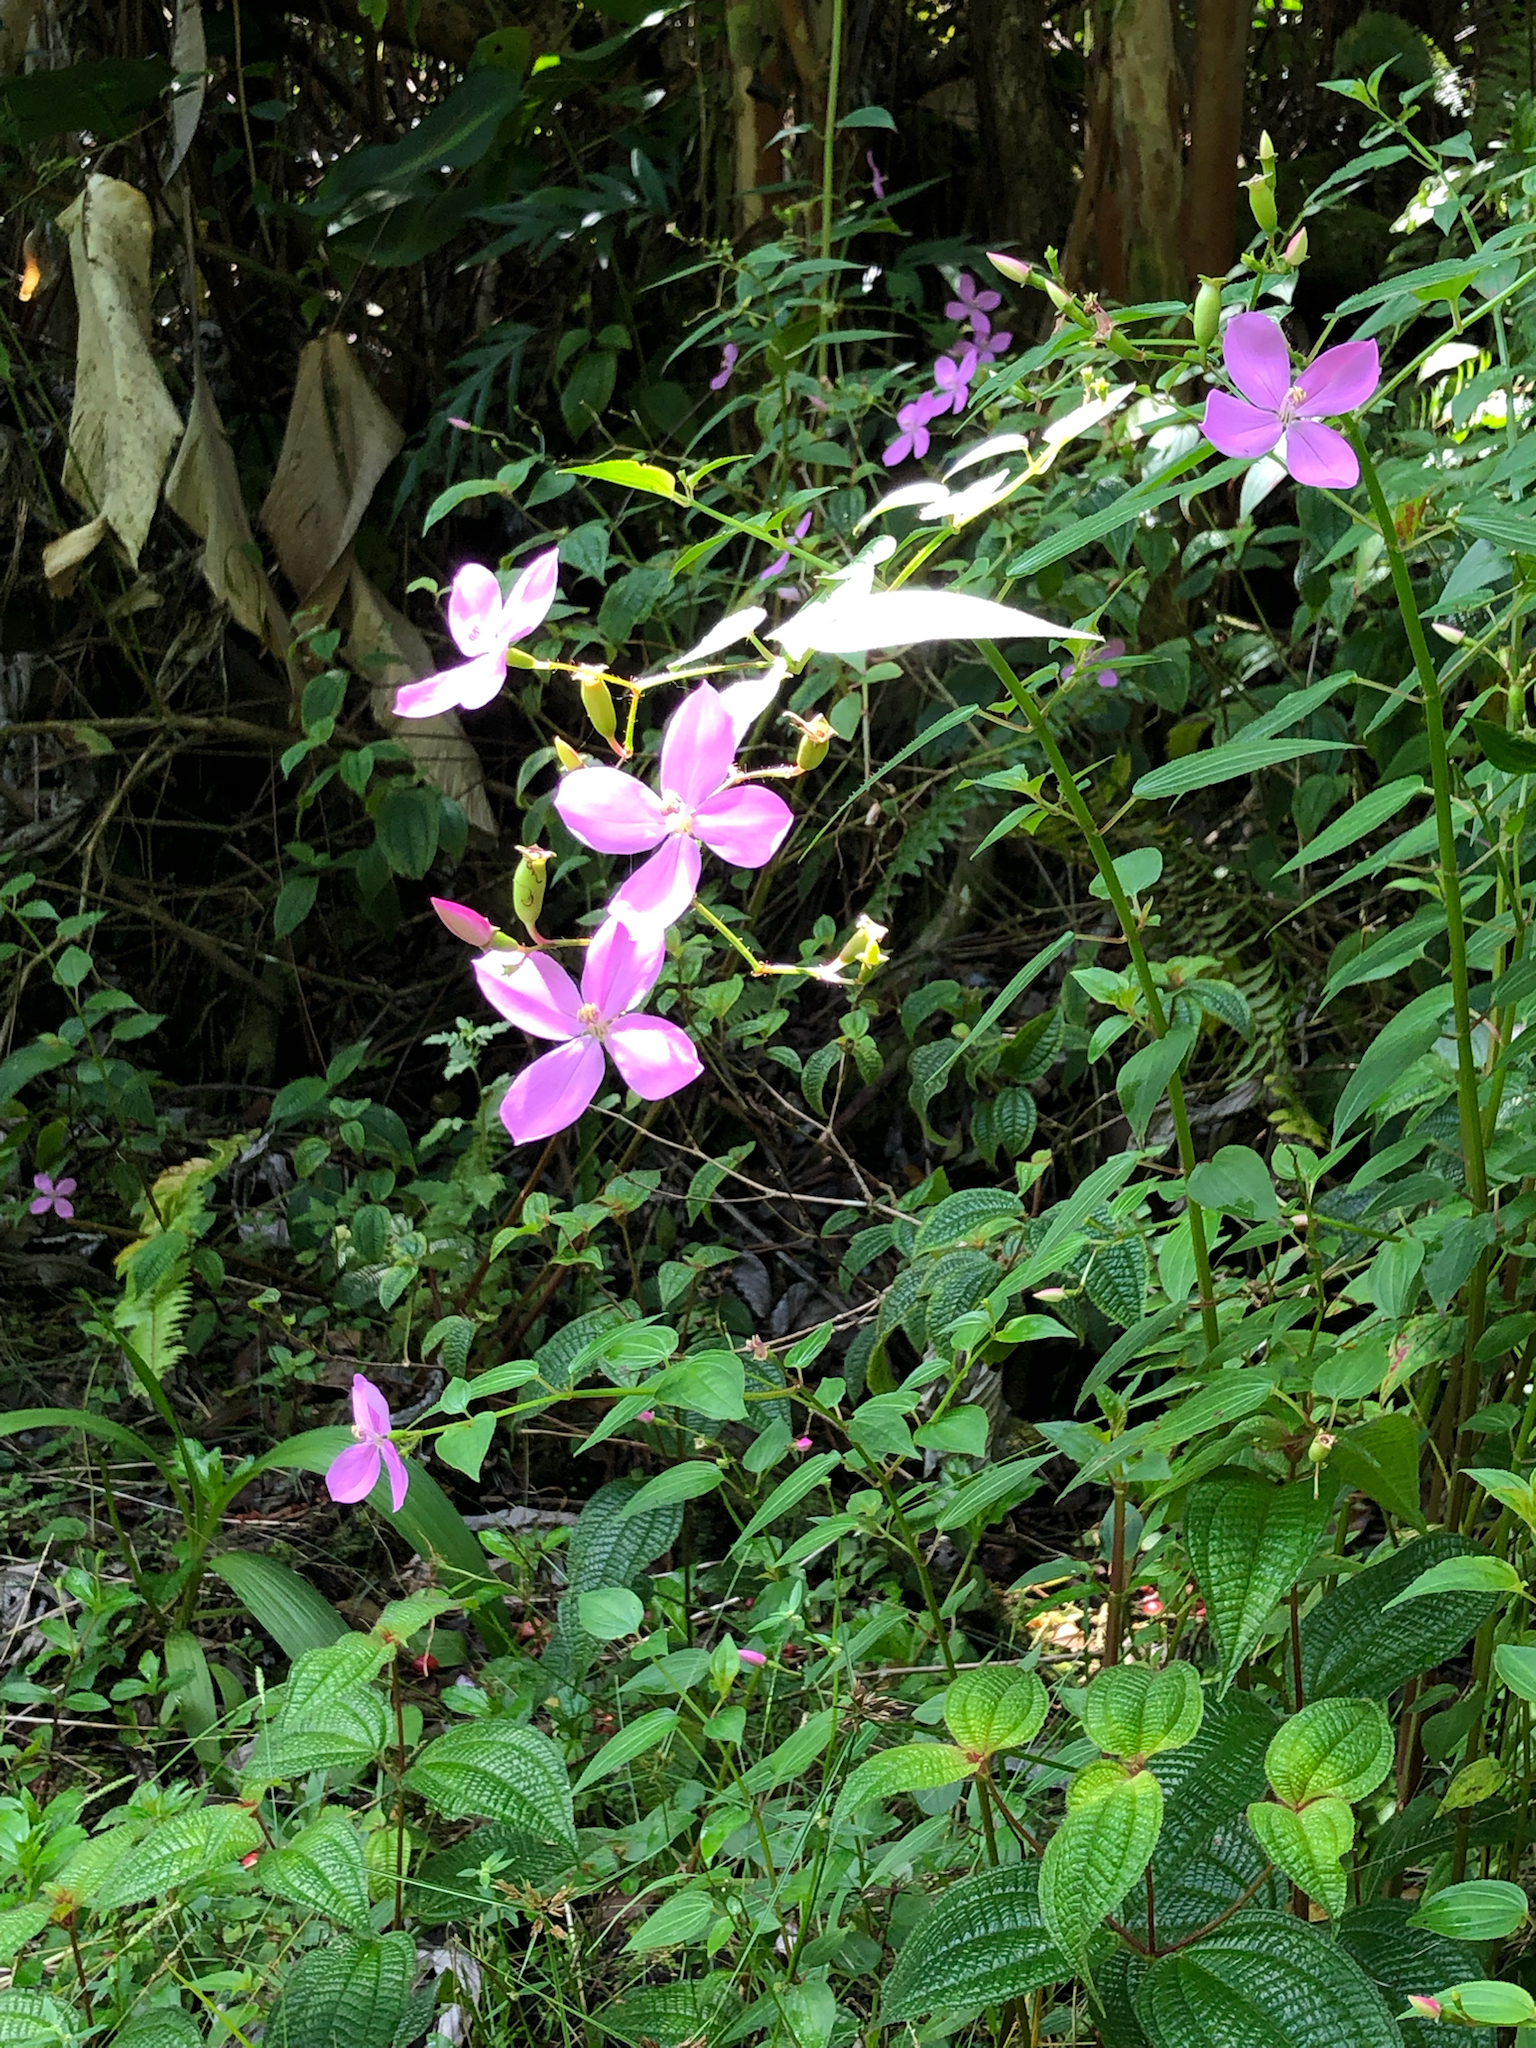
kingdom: Plantae
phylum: Tracheophyta
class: Magnoliopsida
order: Myrtales
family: Melastomataceae
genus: Arthrostemma
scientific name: Arthrostemma ciliatum
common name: Everblooming eavender
